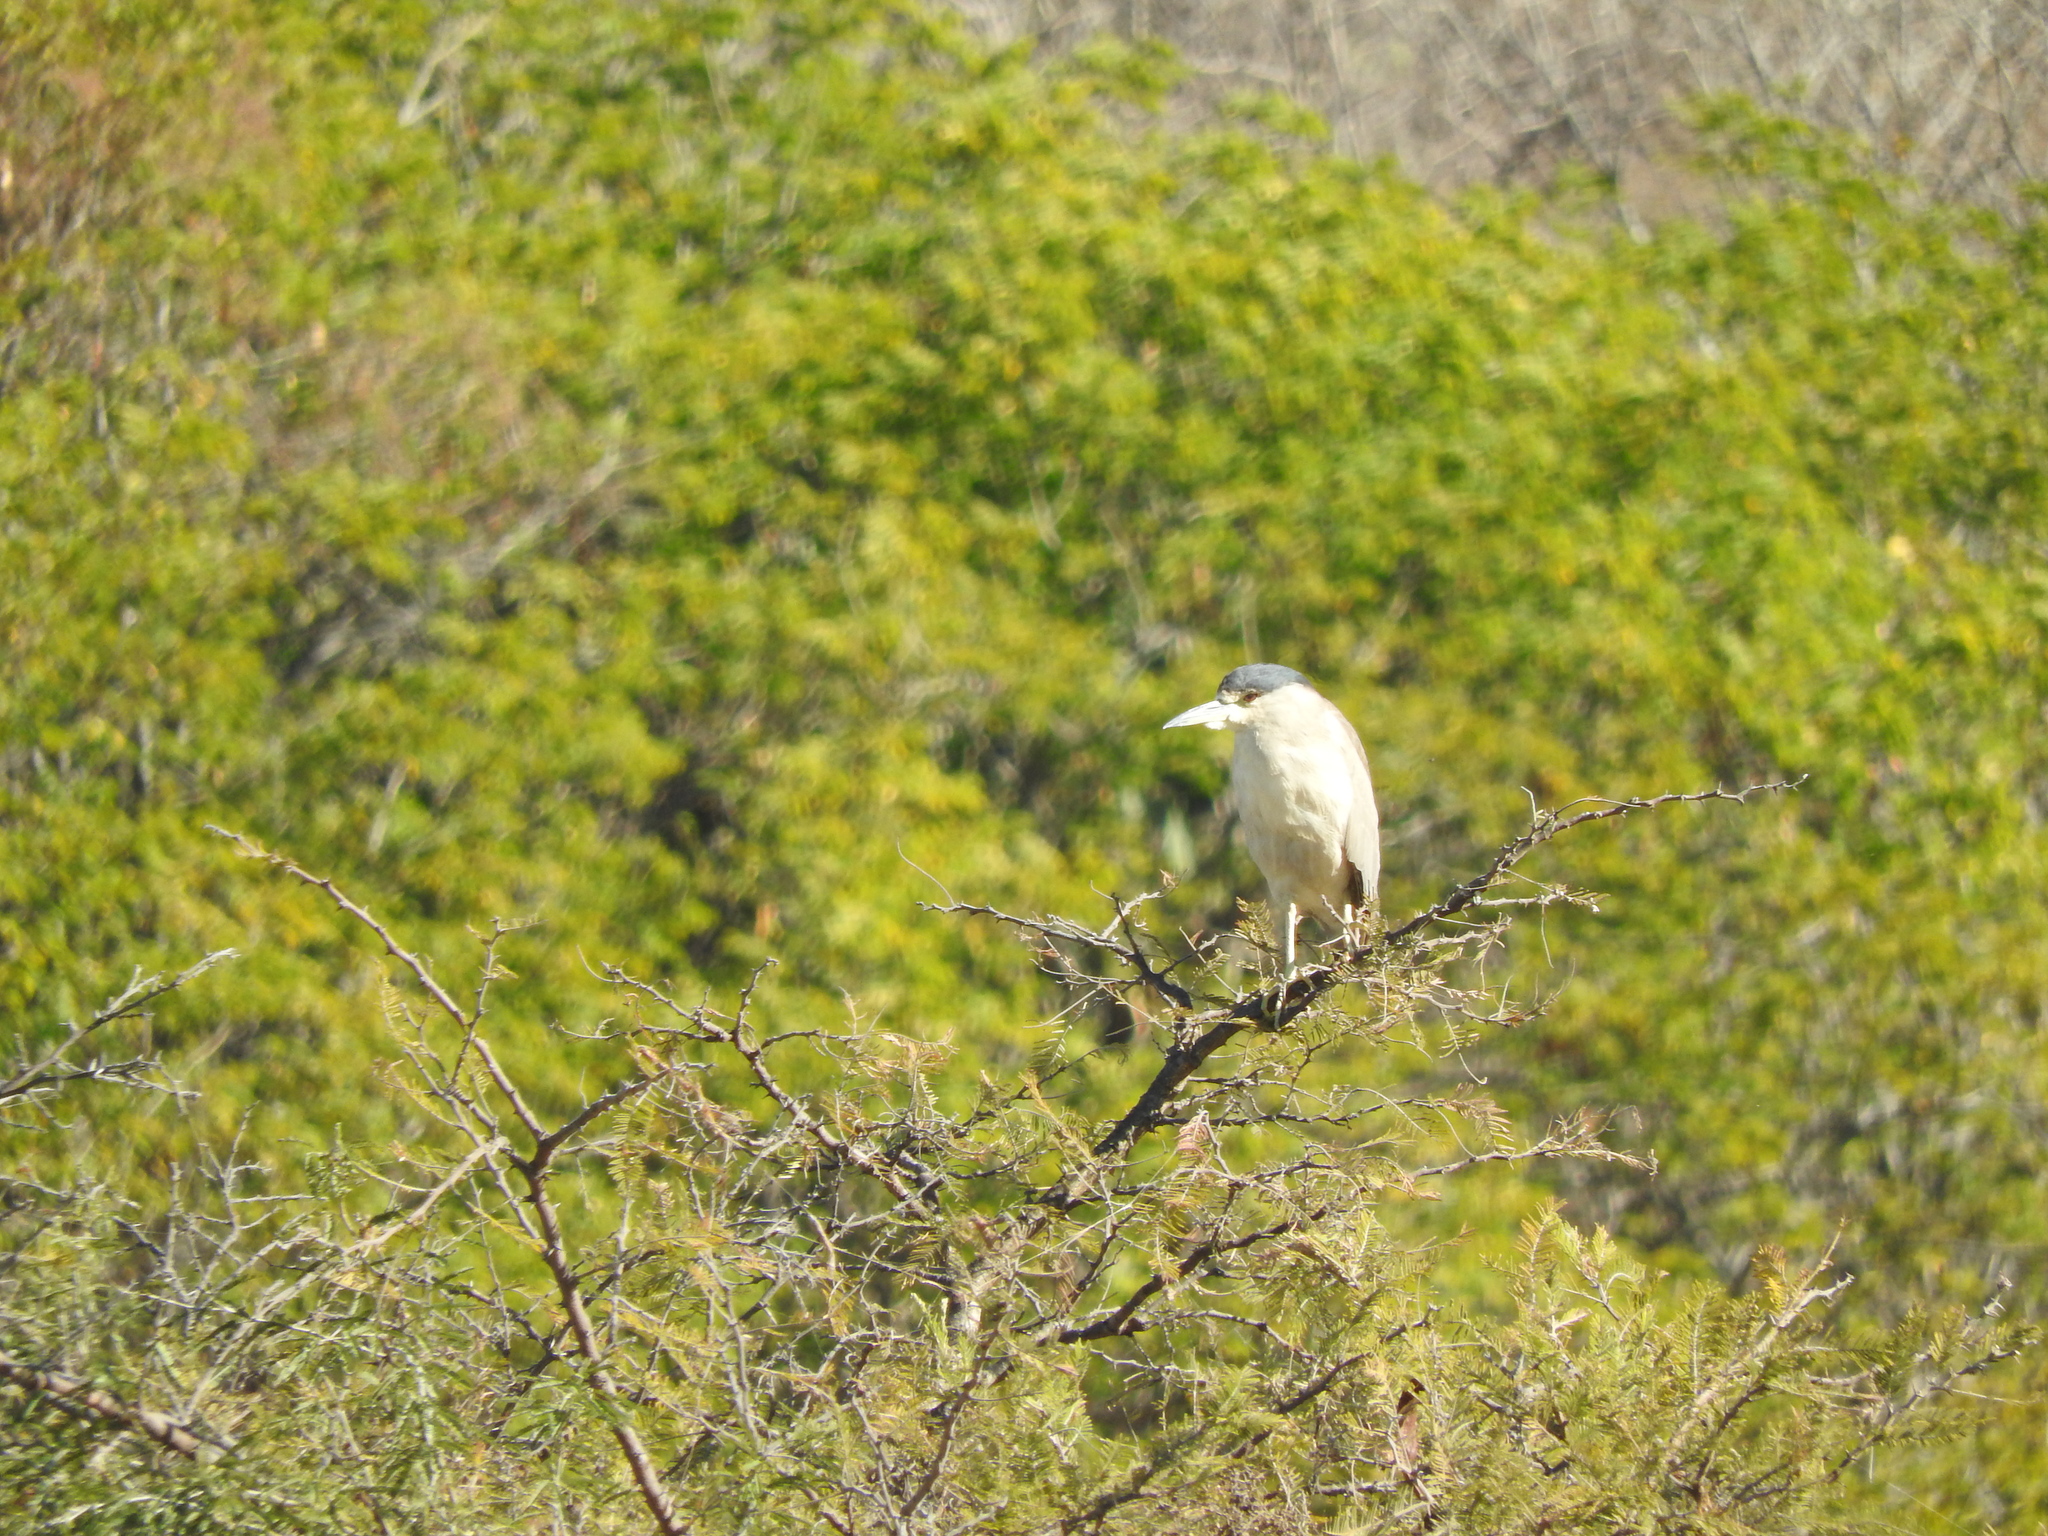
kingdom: Animalia
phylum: Chordata
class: Aves
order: Pelecaniformes
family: Ardeidae
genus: Nycticorax
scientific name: Nycticorax nycticorax
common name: Black-crowned night heron
